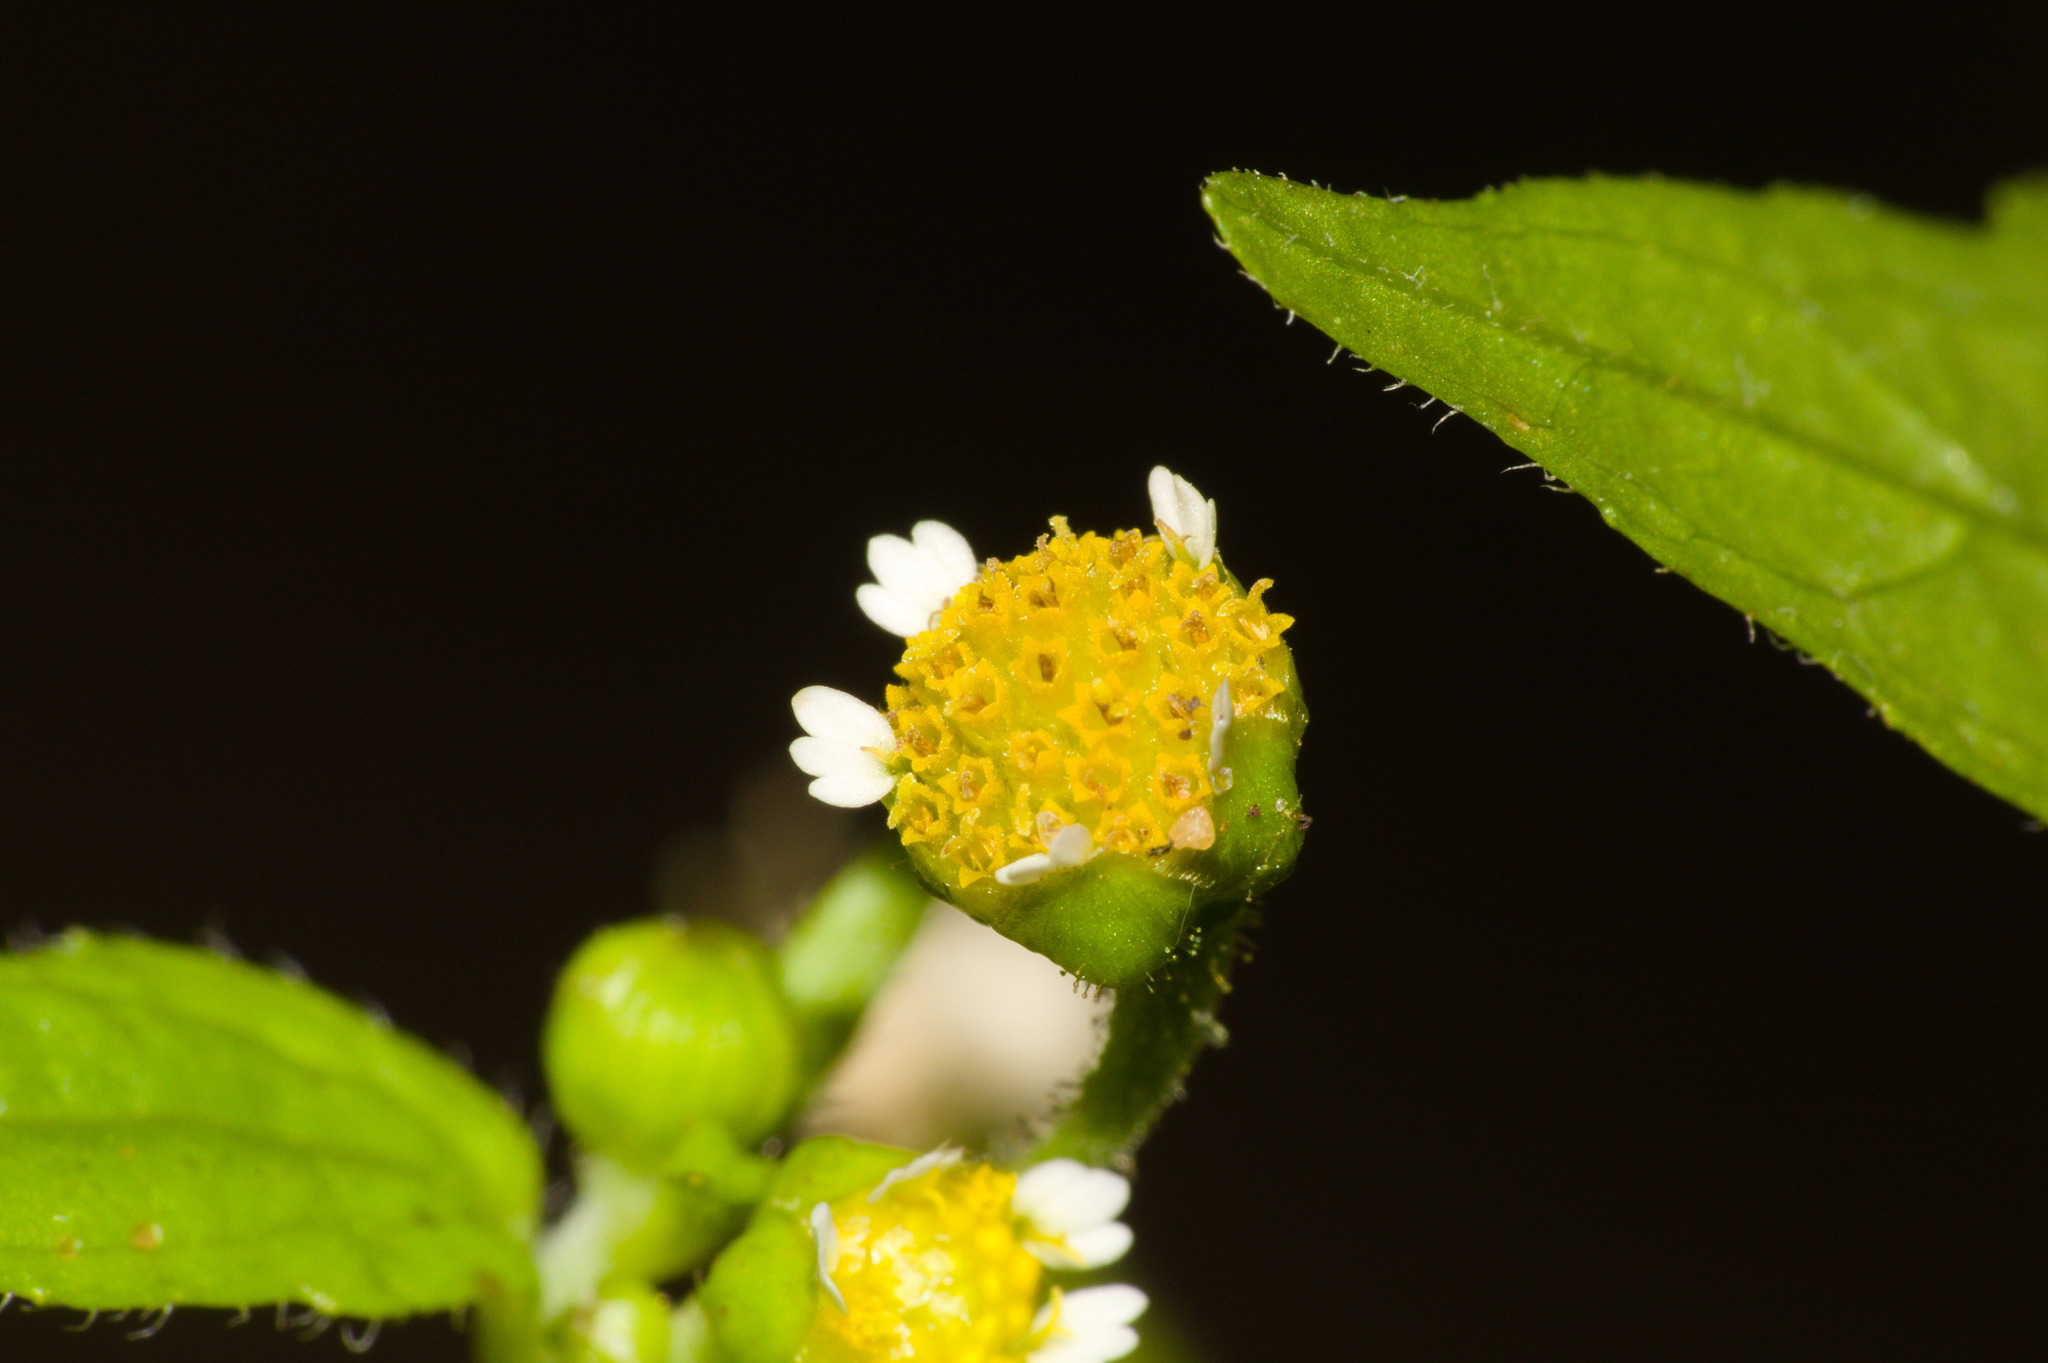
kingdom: Plantae
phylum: Tracheophyta
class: Magnoliopsida
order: Asterales
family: Asteraceae
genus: Galinsoga
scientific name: Galinsoga parviflora
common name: Gallant soldier
